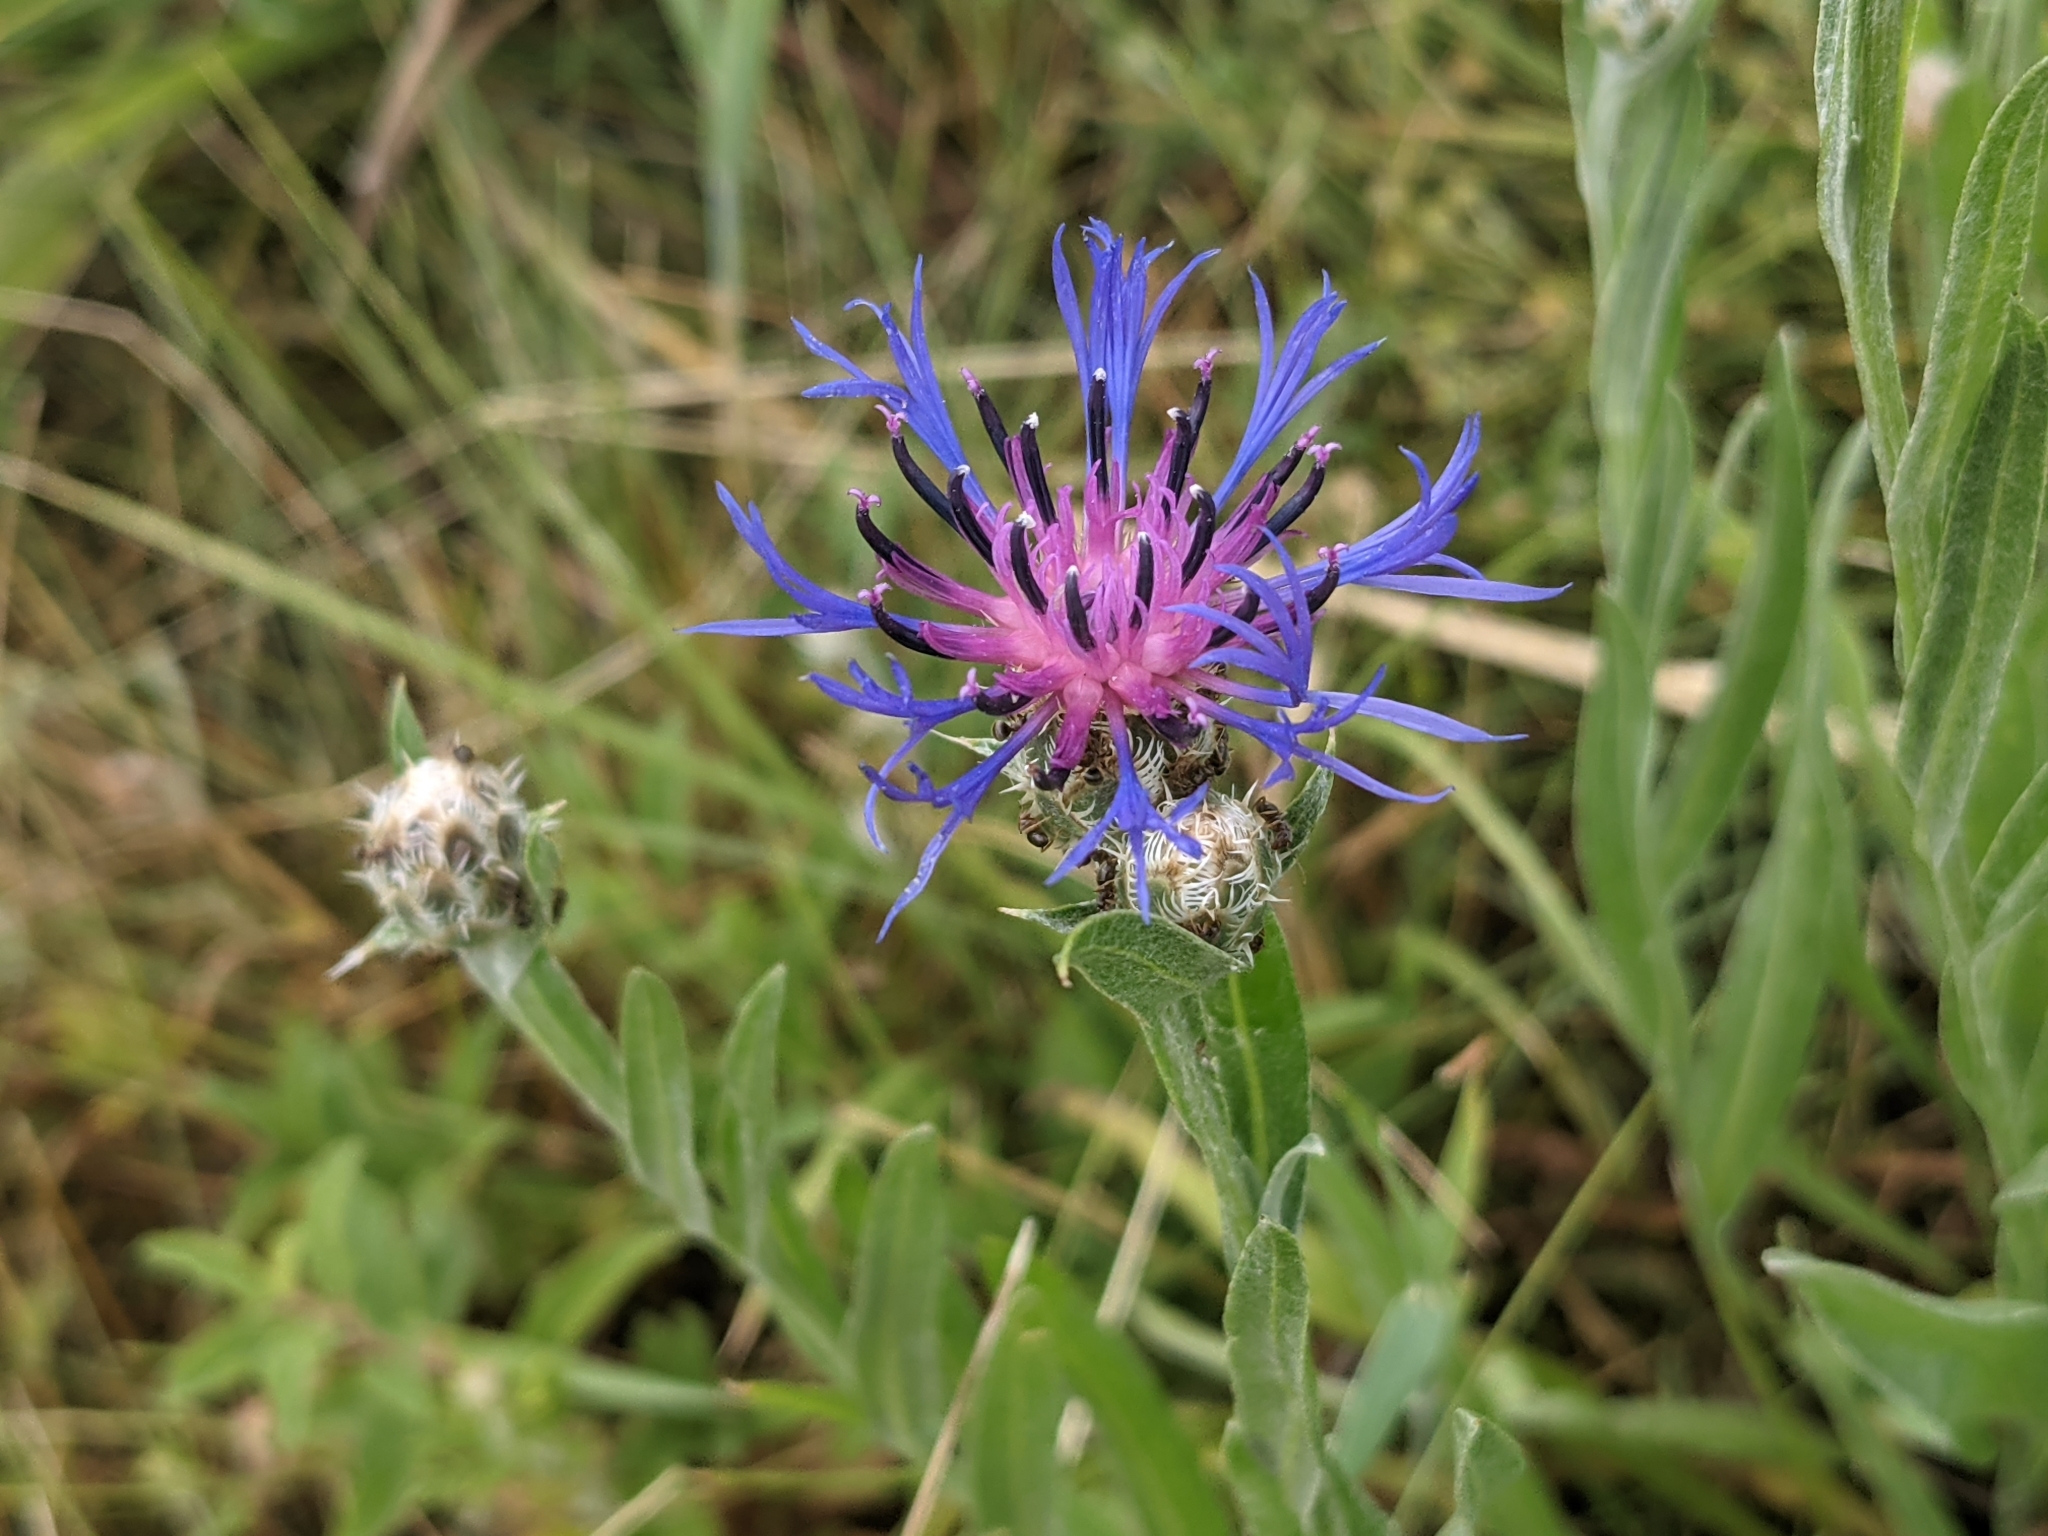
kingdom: Plantae
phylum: Tracheophyta
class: Magnoliopsida
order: Asterales
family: Asteraceae
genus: Centaurea
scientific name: Centaurea triumfettii
